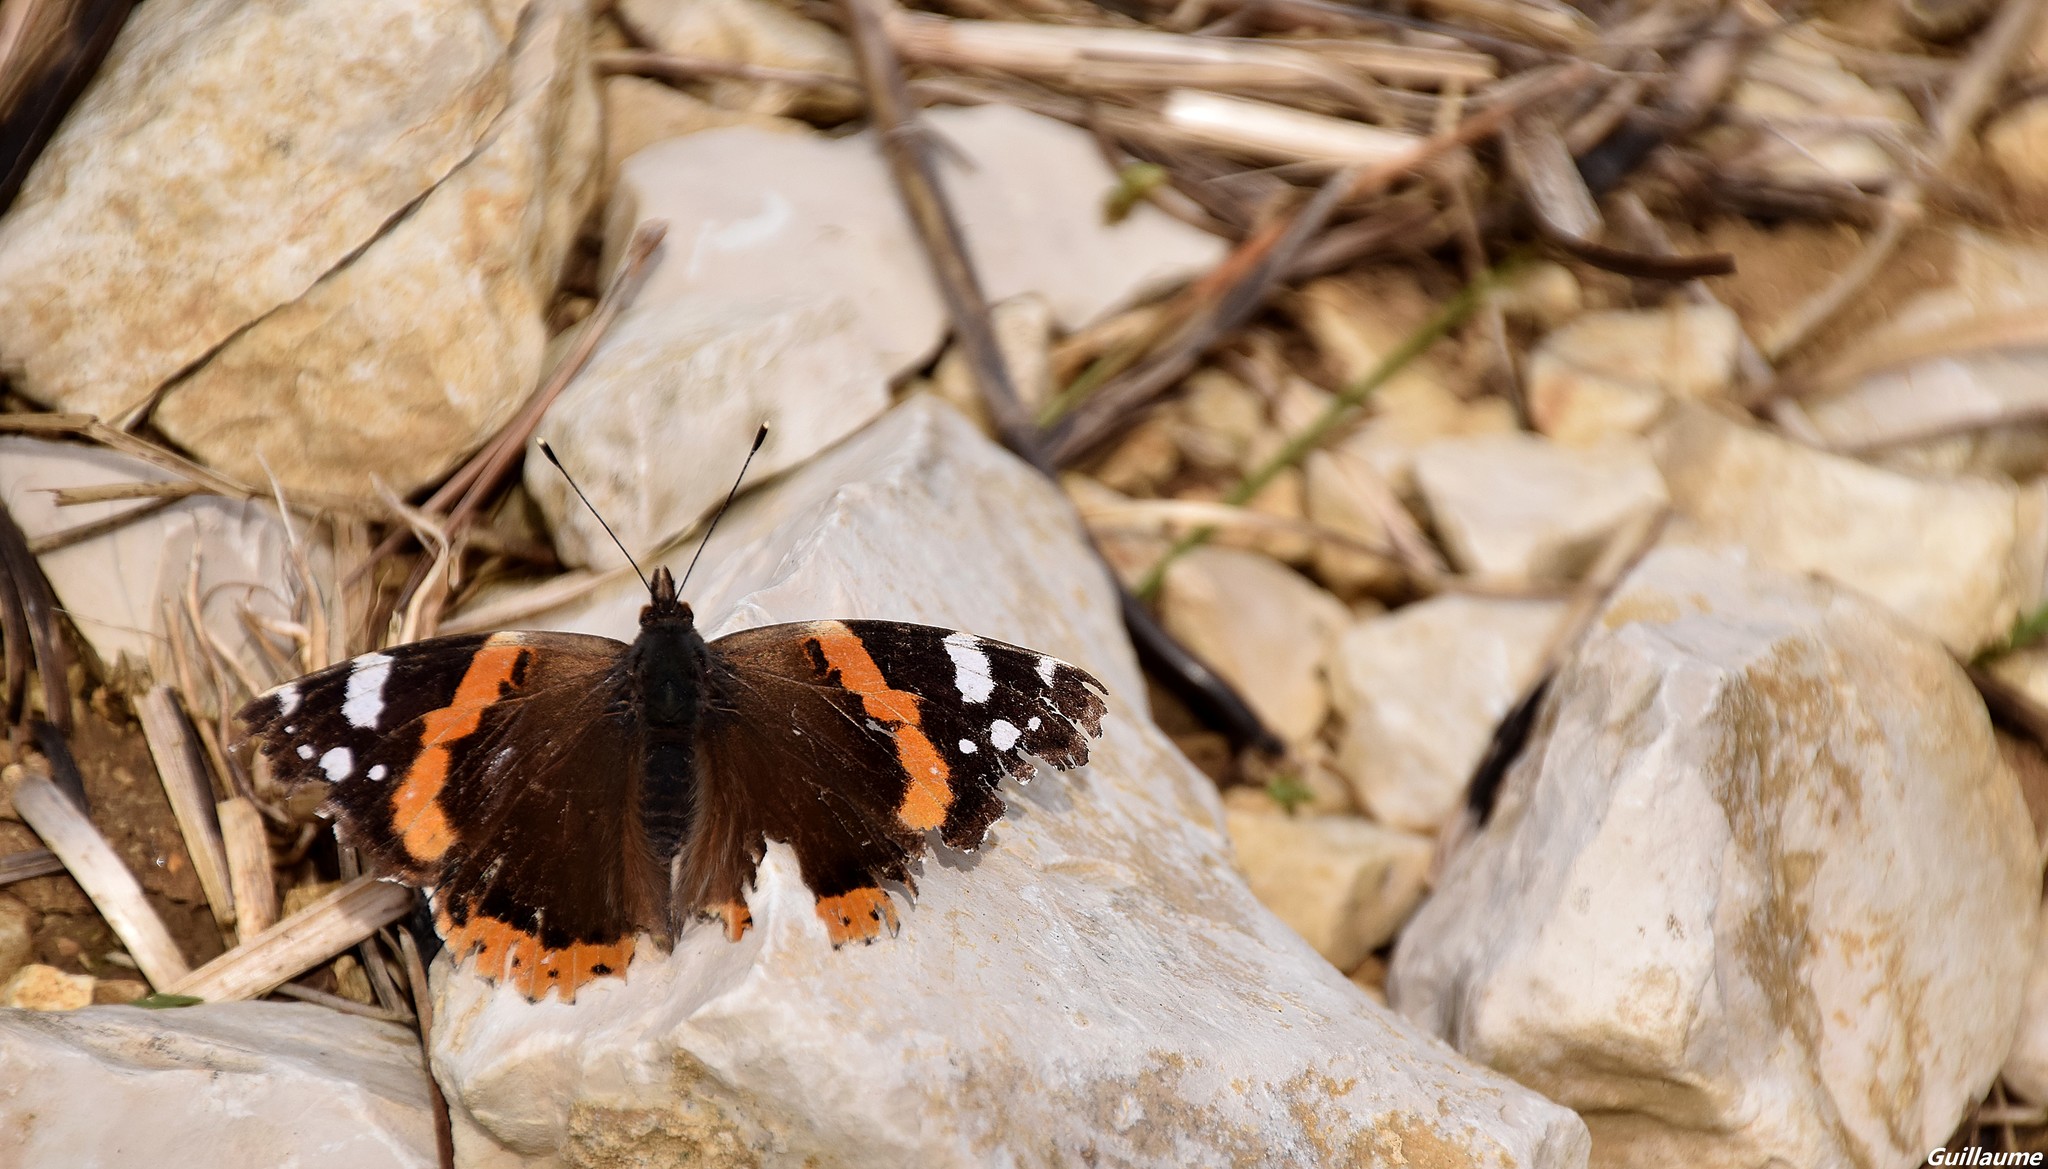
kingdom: Animalia
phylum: Arthropoda
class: Insecta
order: Lepidoptera
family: Nymphalidae
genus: Vanessa
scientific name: Vanessa atalanta
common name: Red admiral
